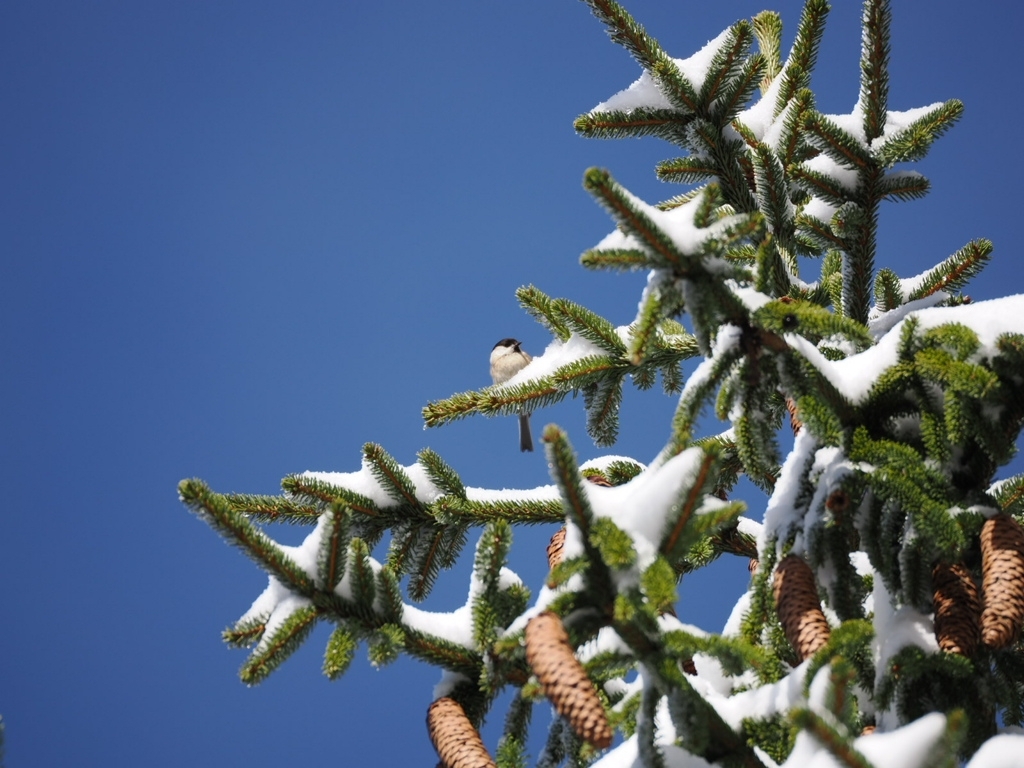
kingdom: Animalia
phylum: Chordata
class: Aves
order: Passeriformes
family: Paridae
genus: Poecile
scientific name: Poecile montanus
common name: Willow tit
